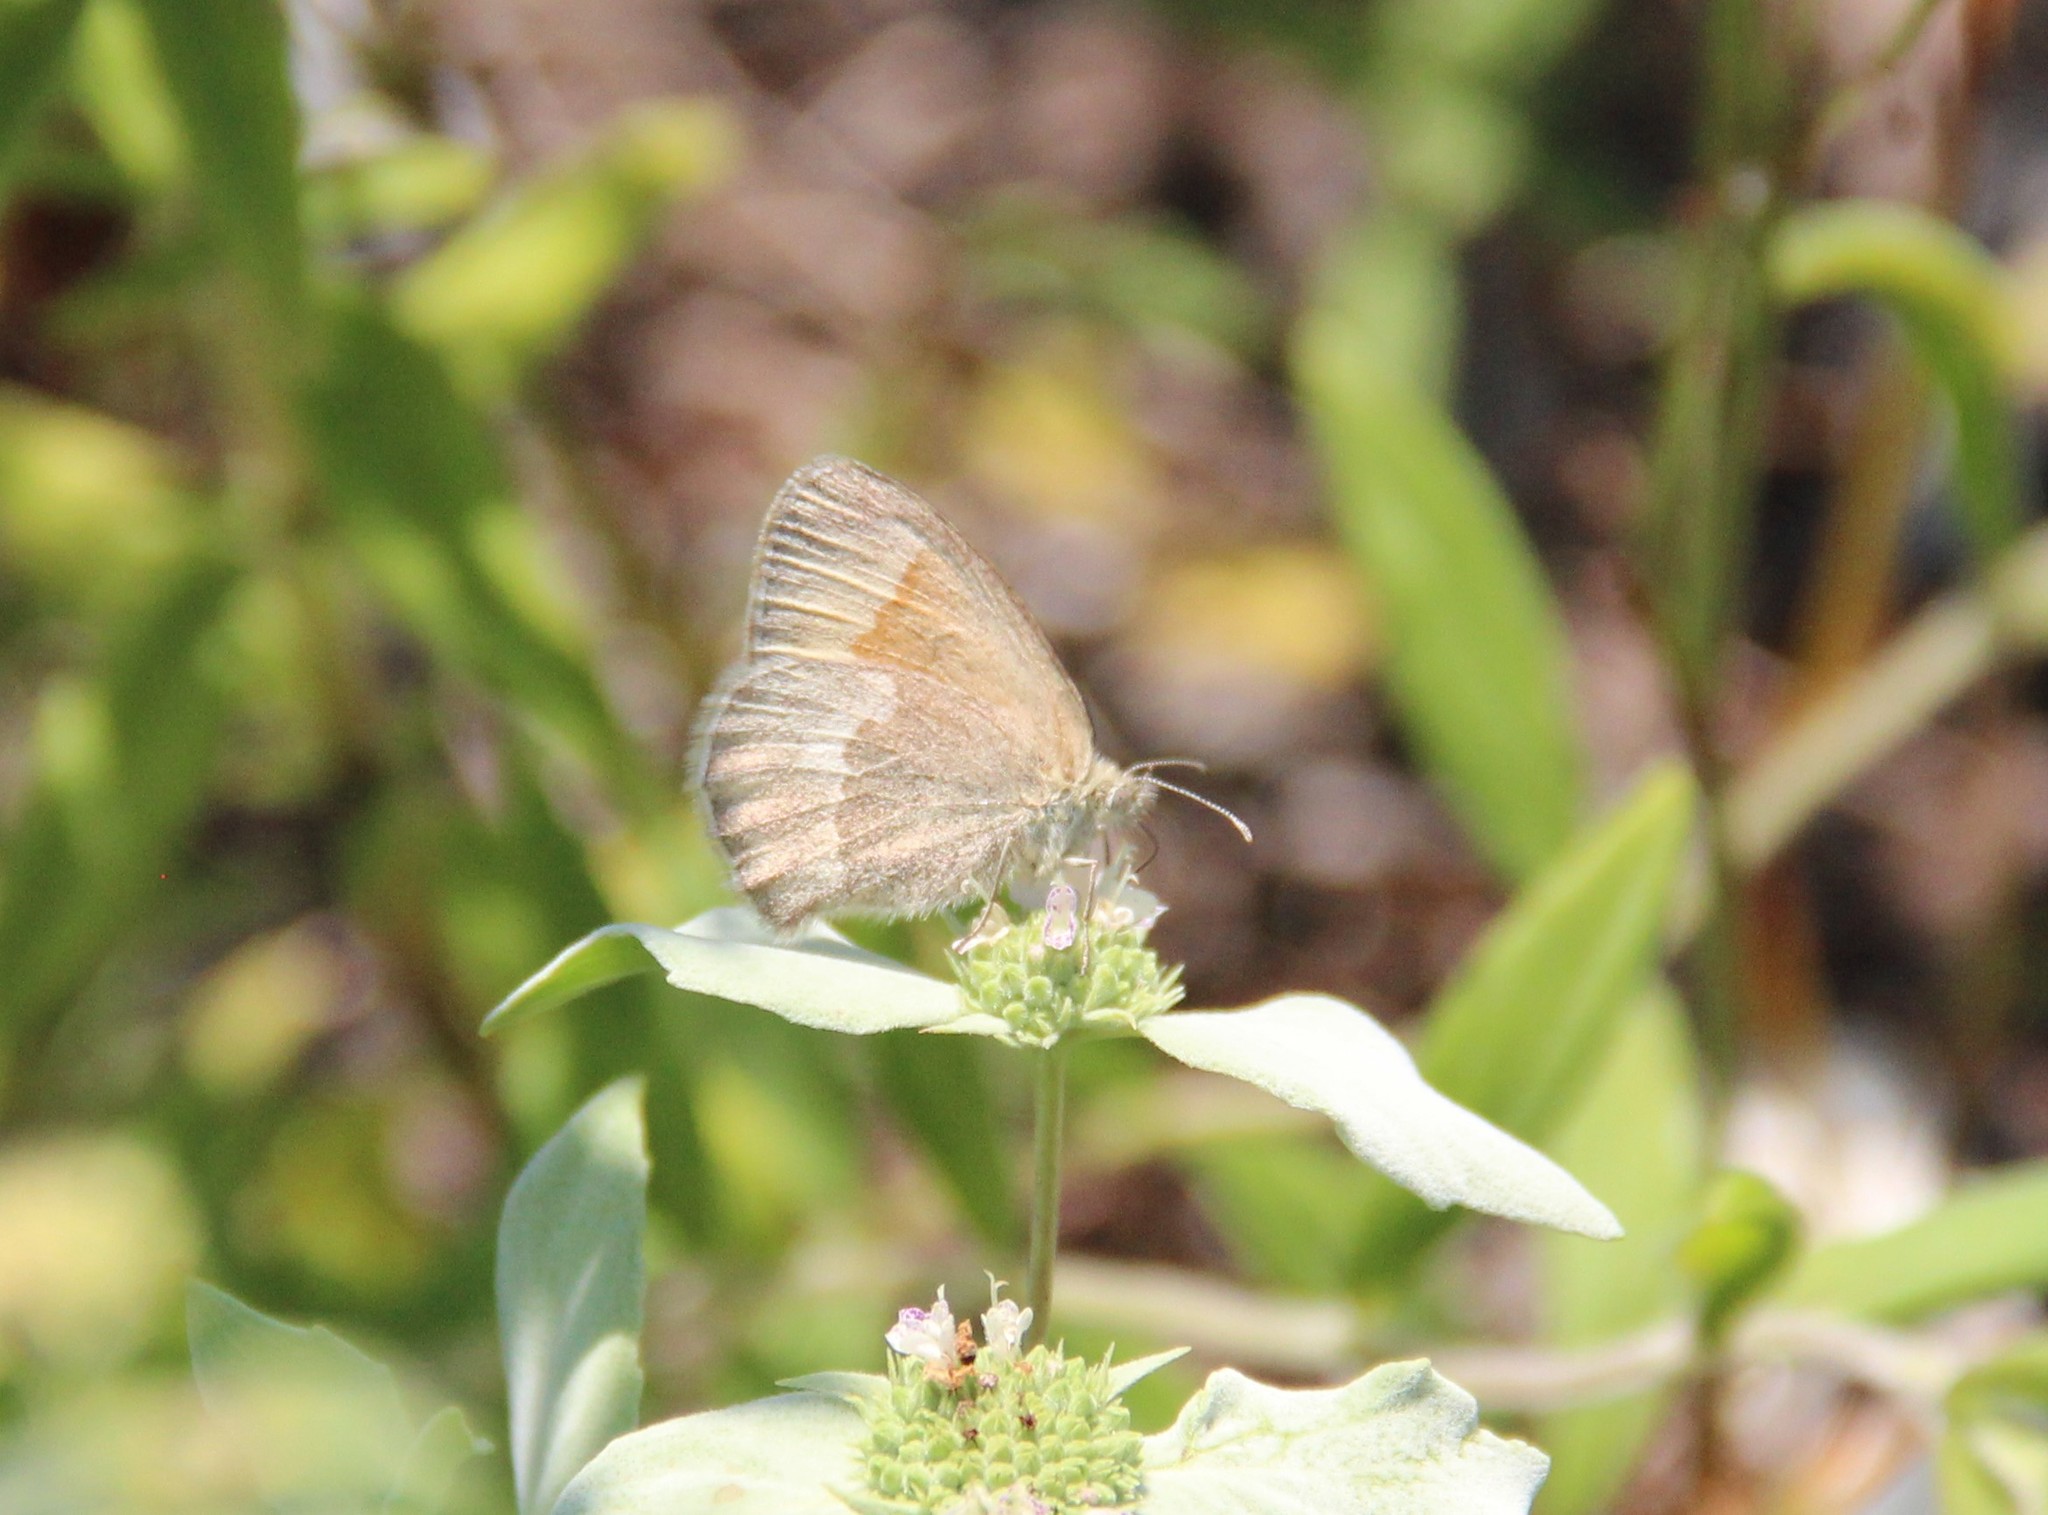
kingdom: Animalia
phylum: Arthropoda
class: Insecta
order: Lepidoptera
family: Nymphalidae
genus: Coenonympha
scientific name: Coenonympha california
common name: Common ringlet
